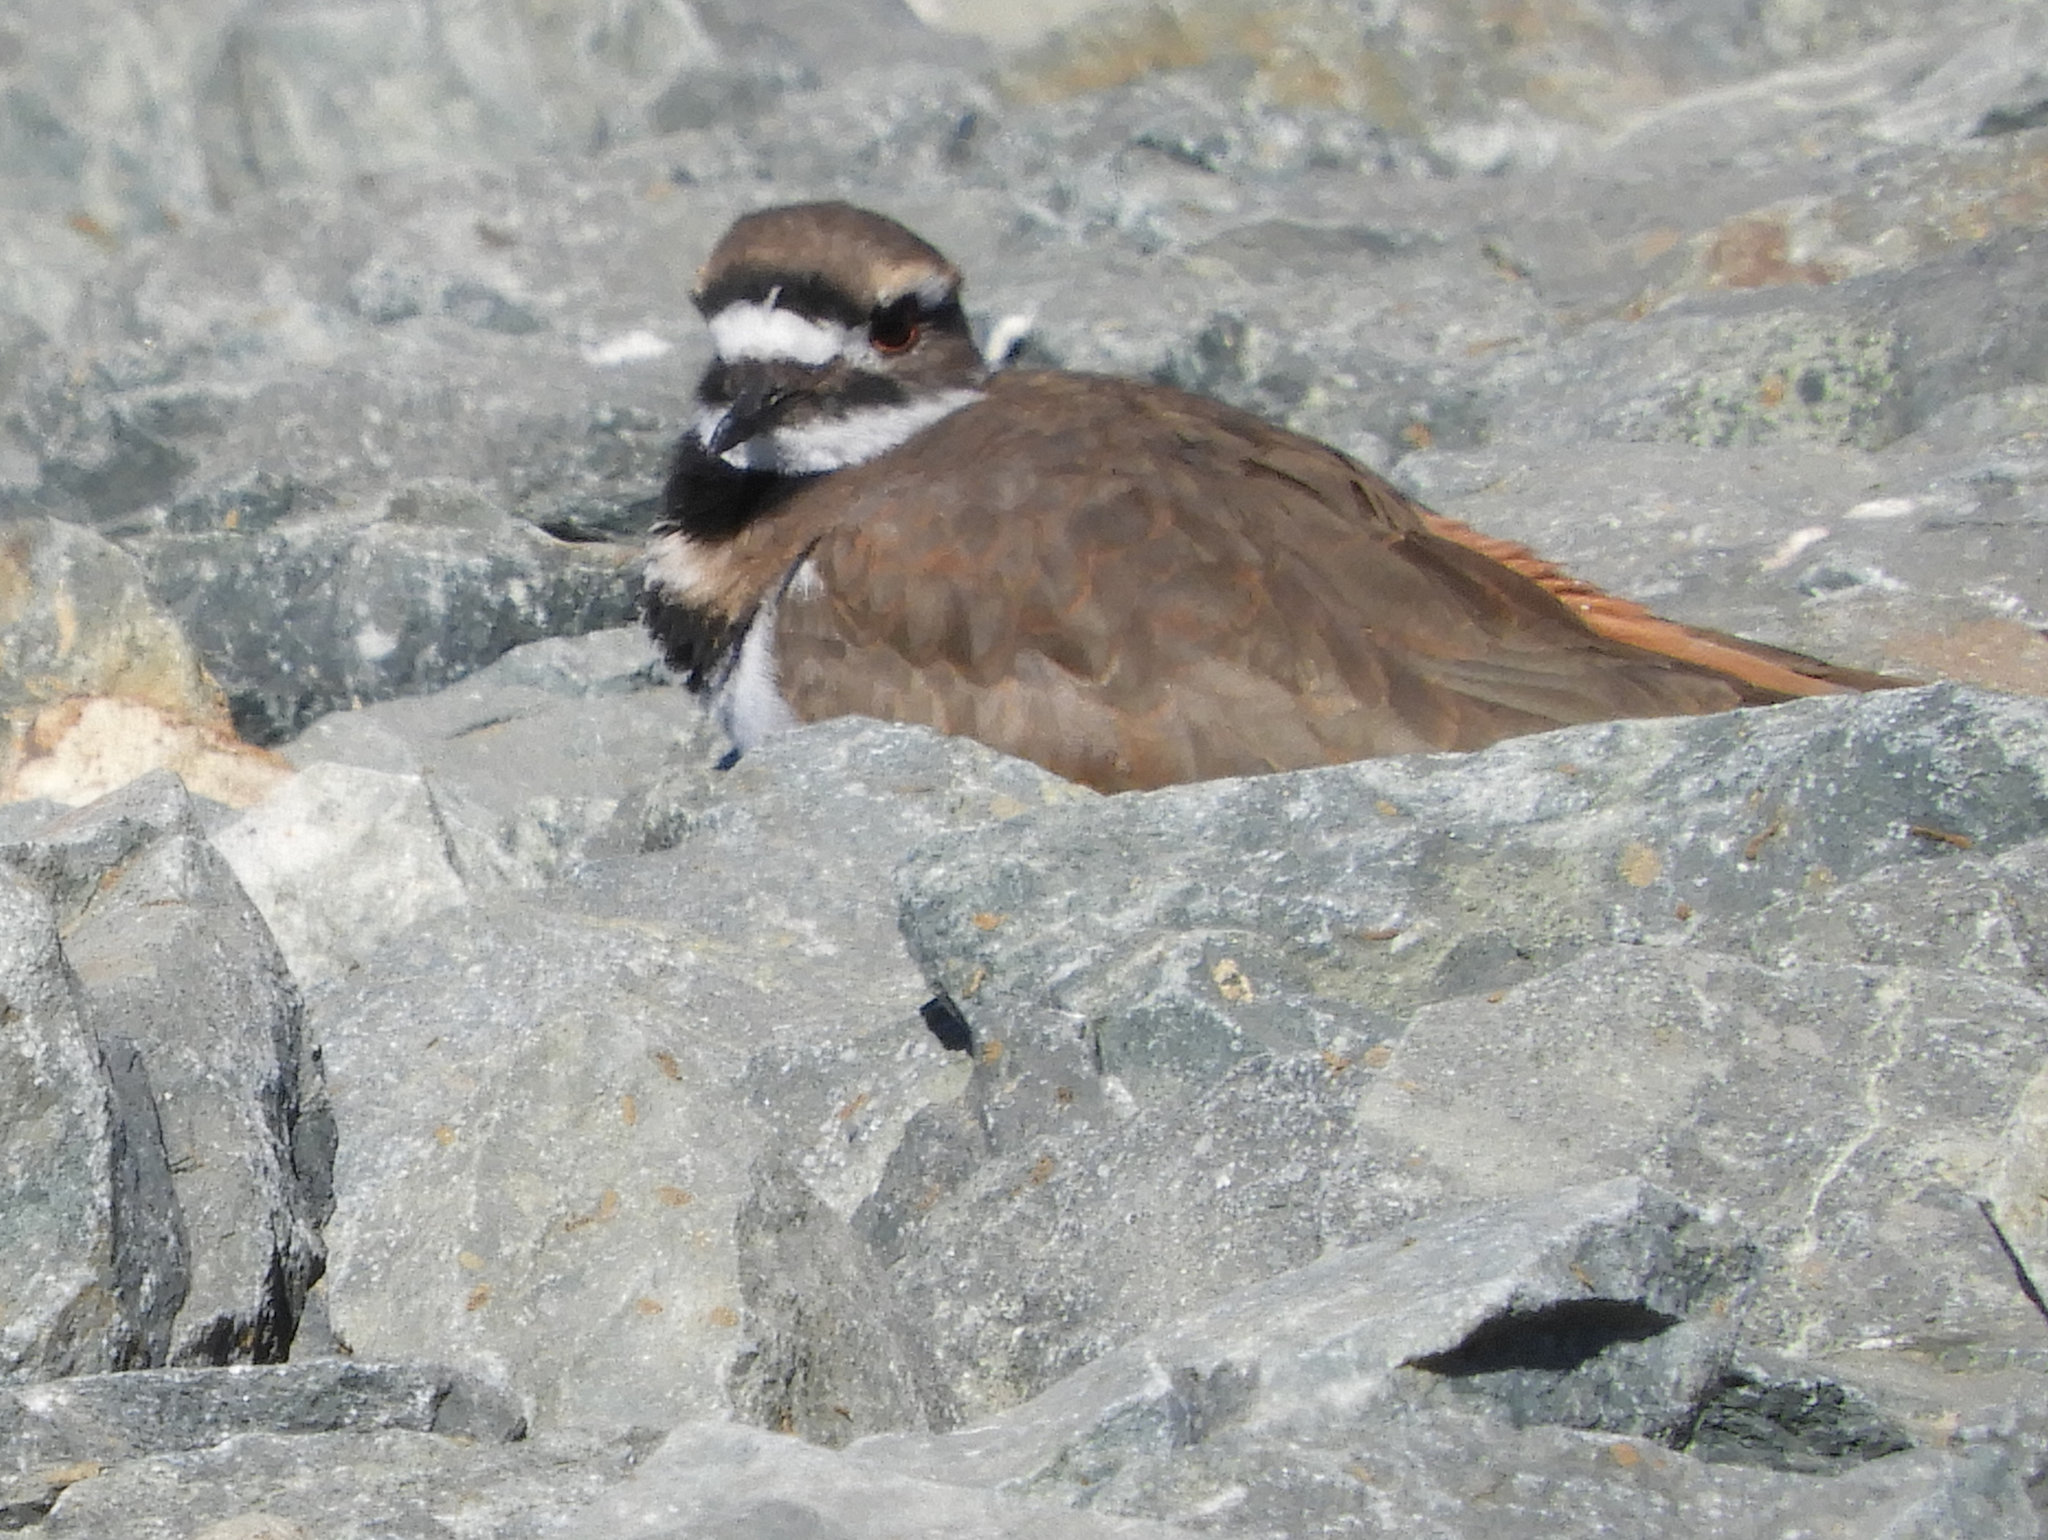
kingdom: Animalia
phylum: Chordata
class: Aves
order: Charadriiformes
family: Charadriidae
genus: Charadrius
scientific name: Charadrius vociferus
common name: Killdeer
